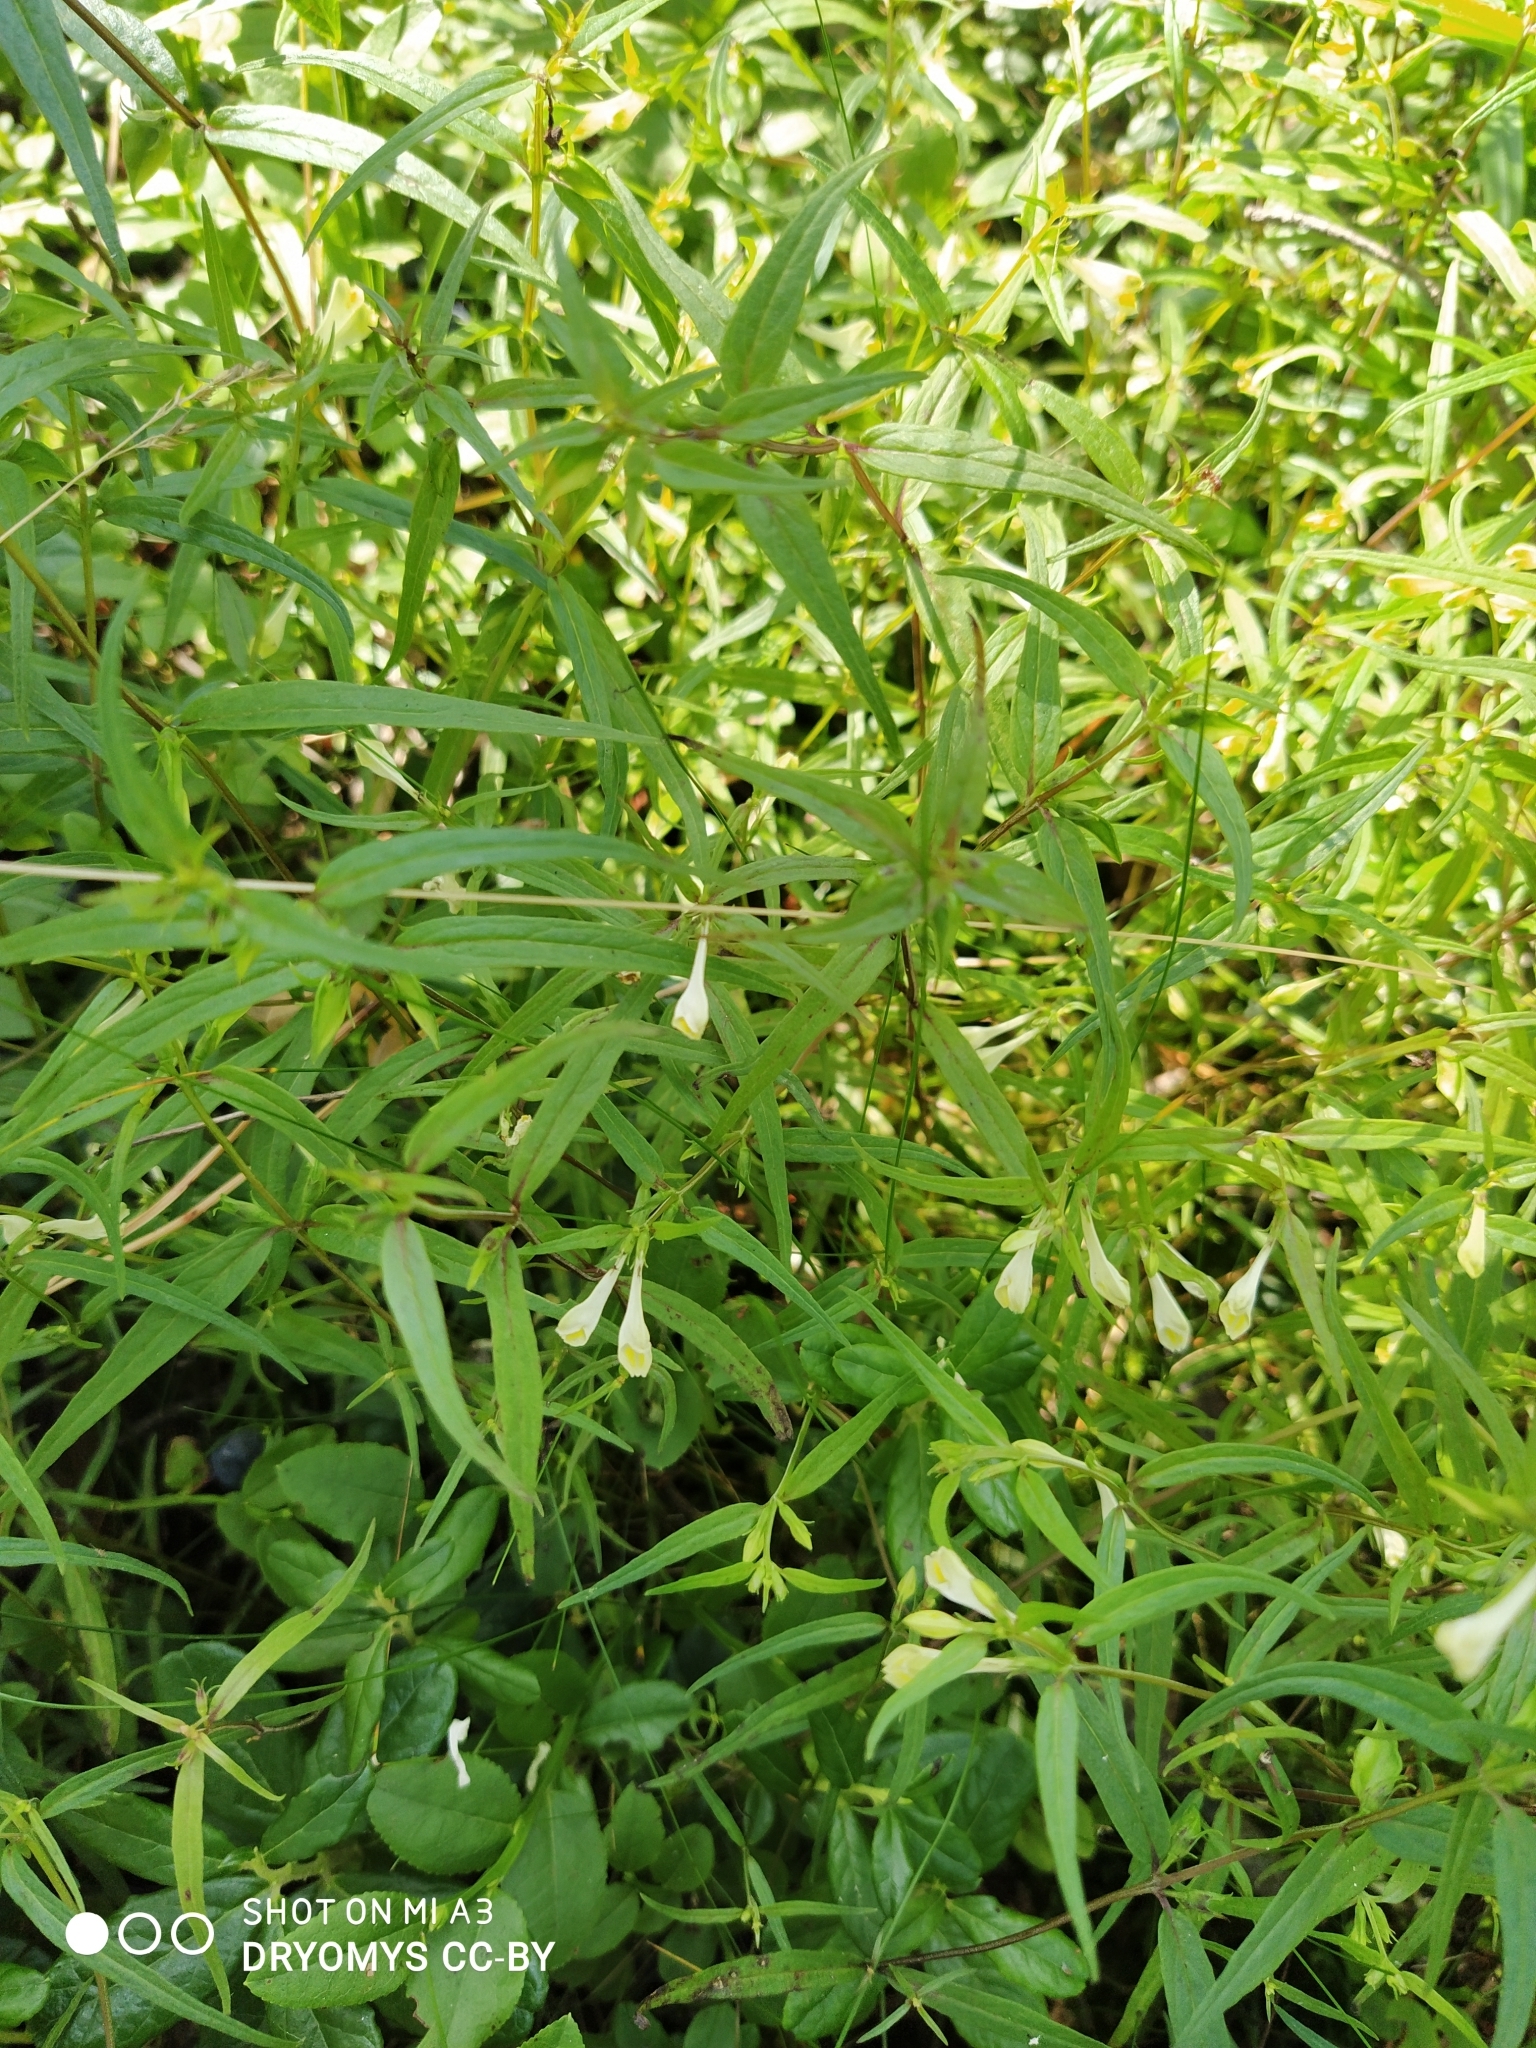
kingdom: Plantae
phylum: Tracheophyta
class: Magnoliopsida
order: Lamiales
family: Orobanchaceae
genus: Melampyrum
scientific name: Melampyrum pratense
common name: Common cow-wheat
